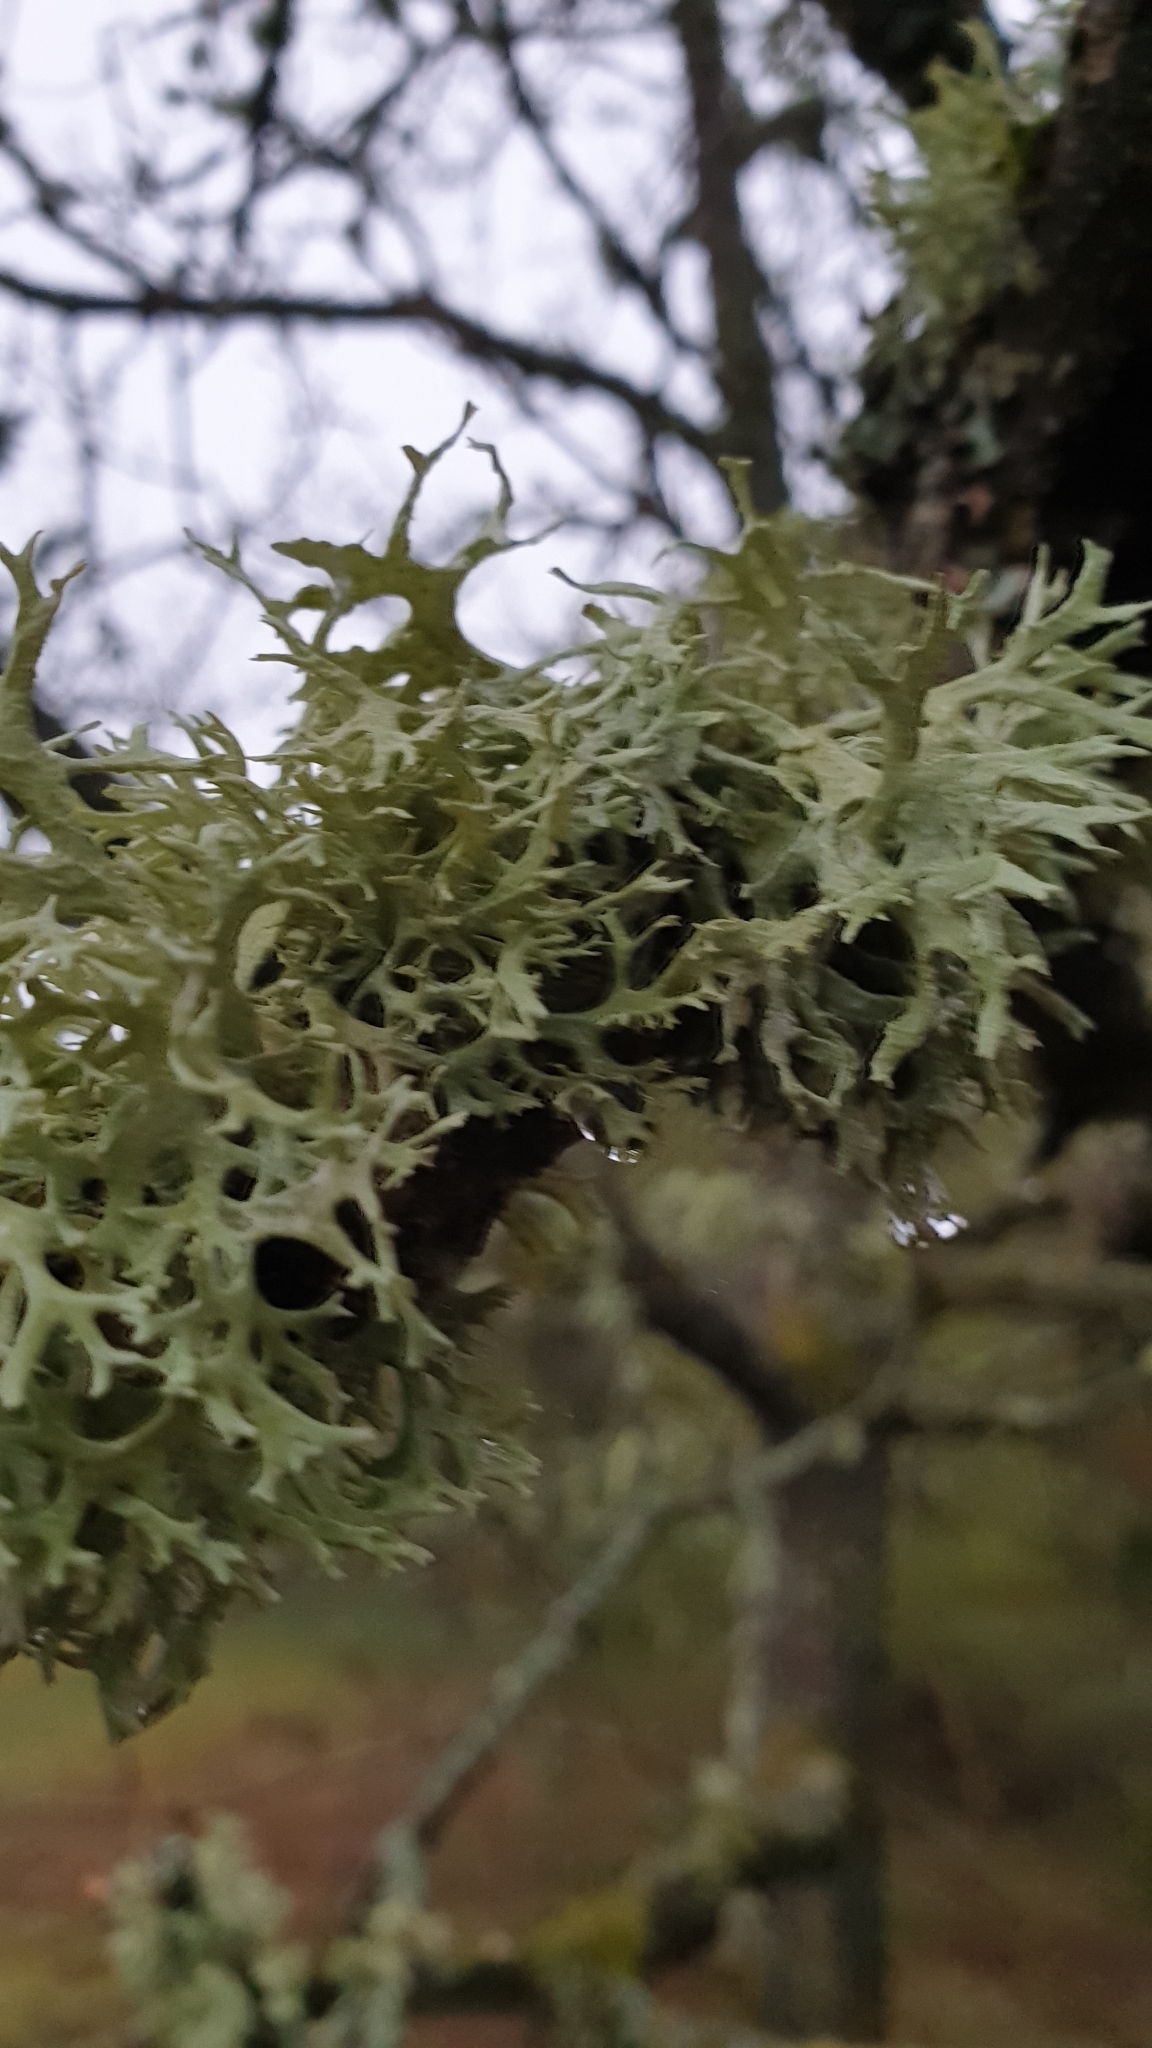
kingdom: Fungi
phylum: Ascomycota
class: Lecanoromycetes
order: Lecanorales
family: Parmeliaceae
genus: Evernia
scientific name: Evernia prunastri
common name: Oak moss
